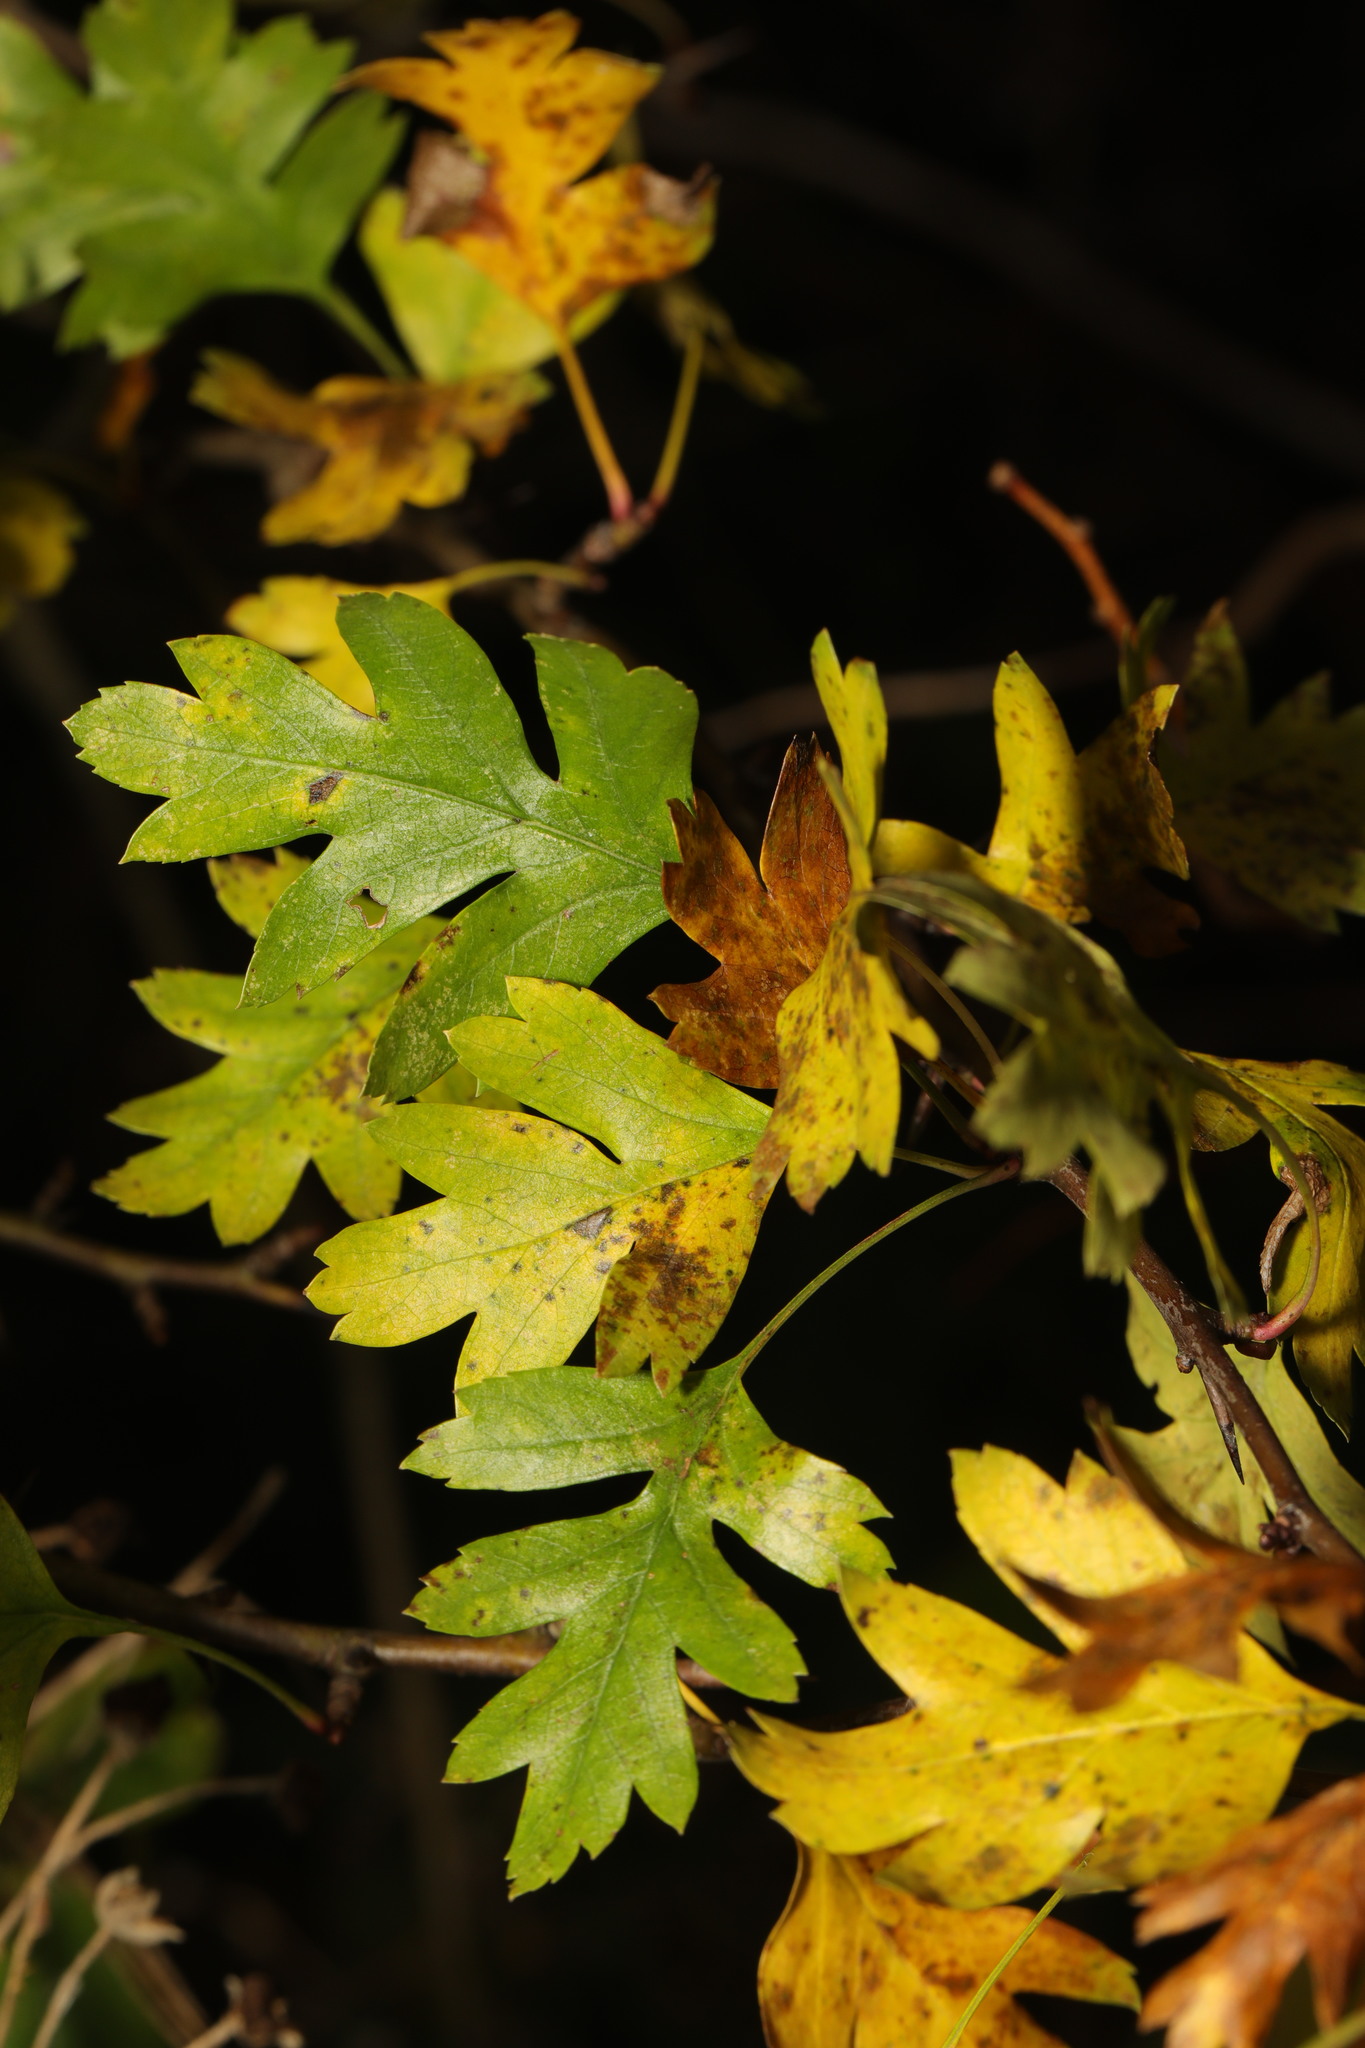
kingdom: Plantae
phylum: Tracheophyta
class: Magnoliopsida
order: Rosales
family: Rosaceae
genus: Crataegus
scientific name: Crataegus monogyna
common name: Hawthorn
